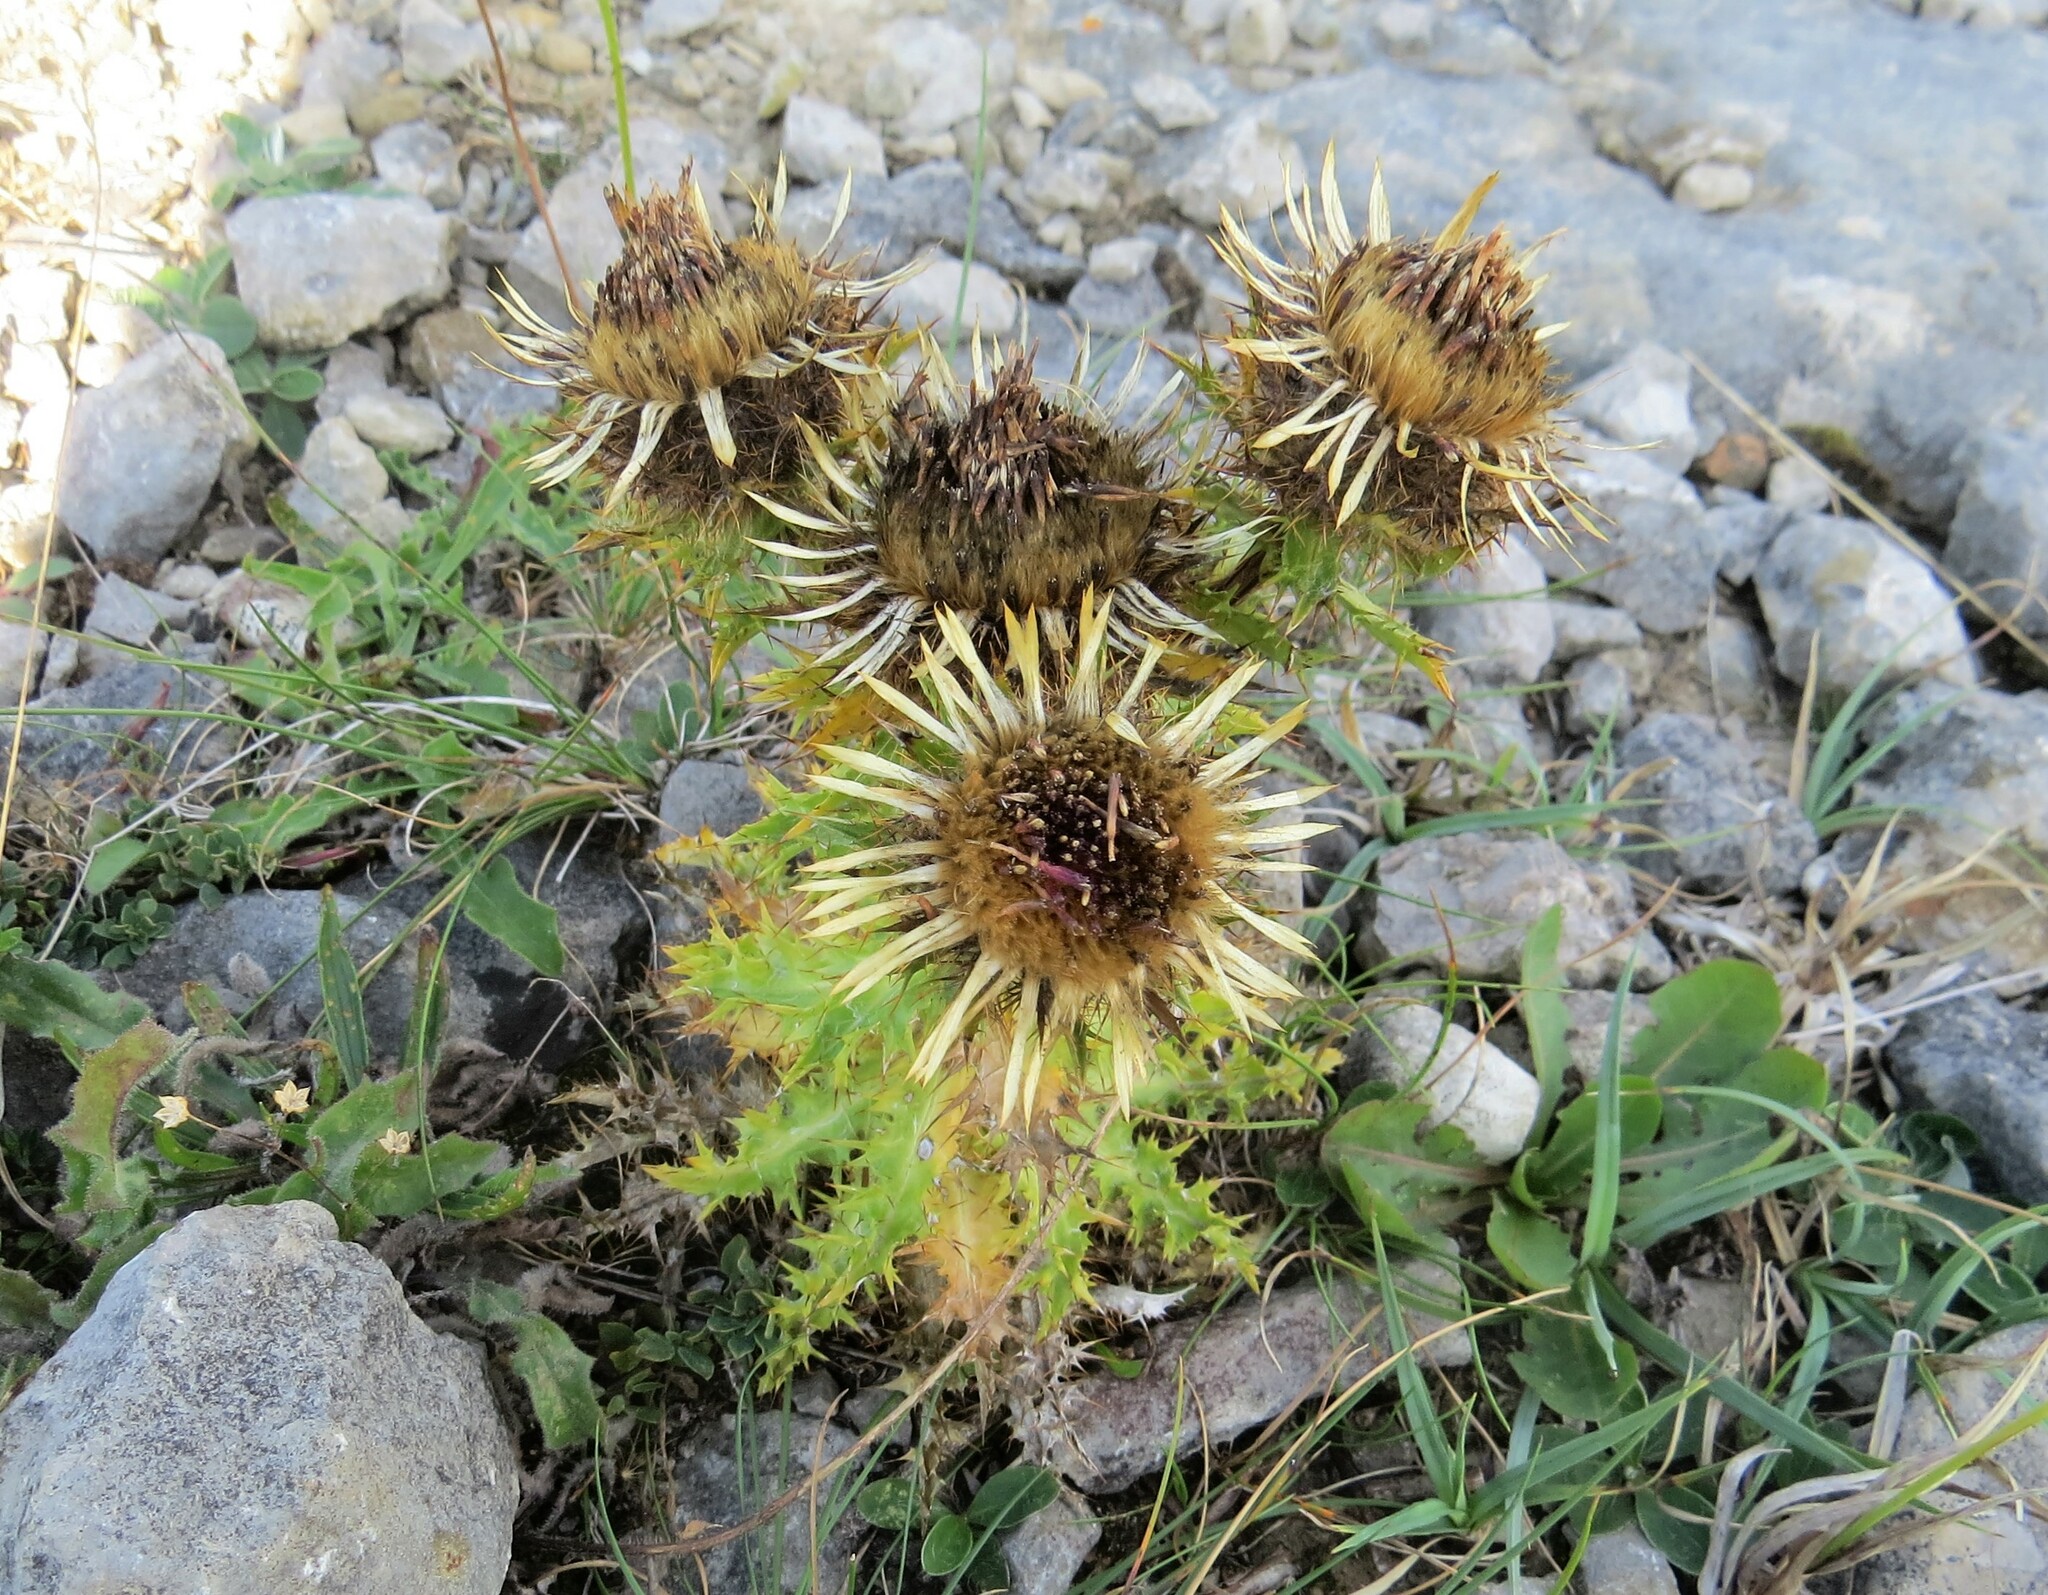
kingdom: Plantae
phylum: Tracheophyta
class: Magnoliopsida
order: Asterales
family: Asteraceae
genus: Carlina
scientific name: Carlina vulgaris
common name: Carline thistle
